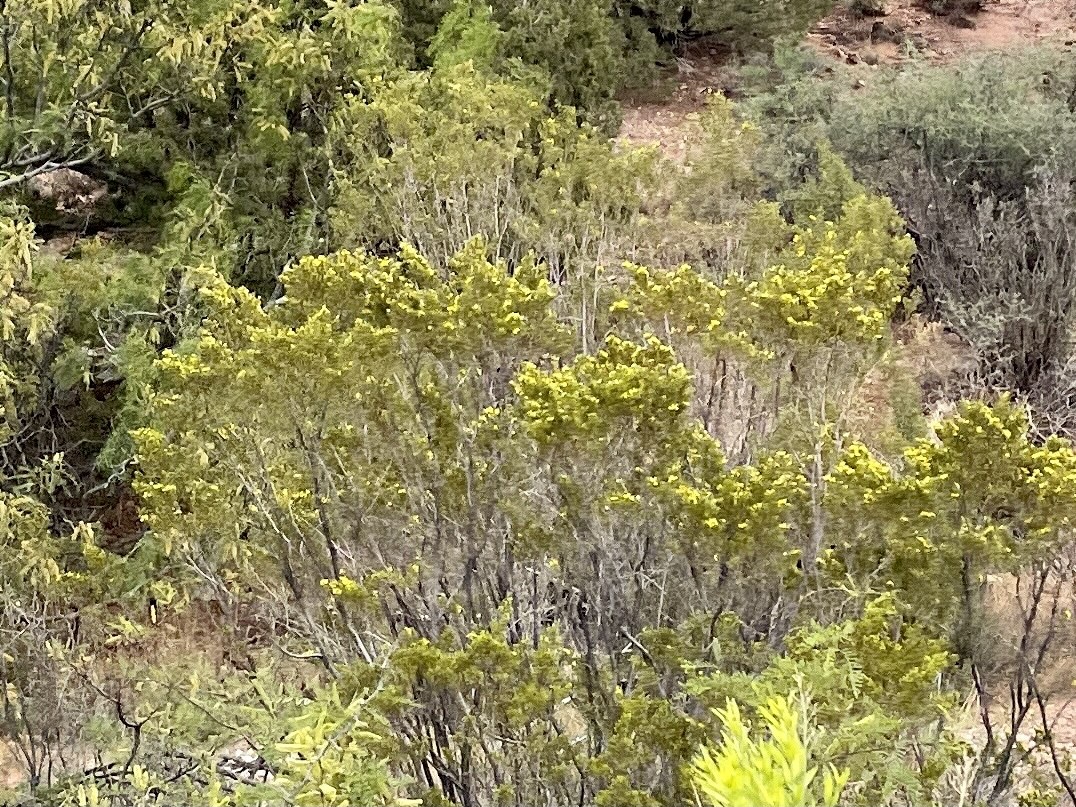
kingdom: Plantae
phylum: Tracheophyta
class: Magnoliopsida
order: Zygophyllales
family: Zygophyllaceae
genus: Larrea
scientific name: Larrea tridentata
